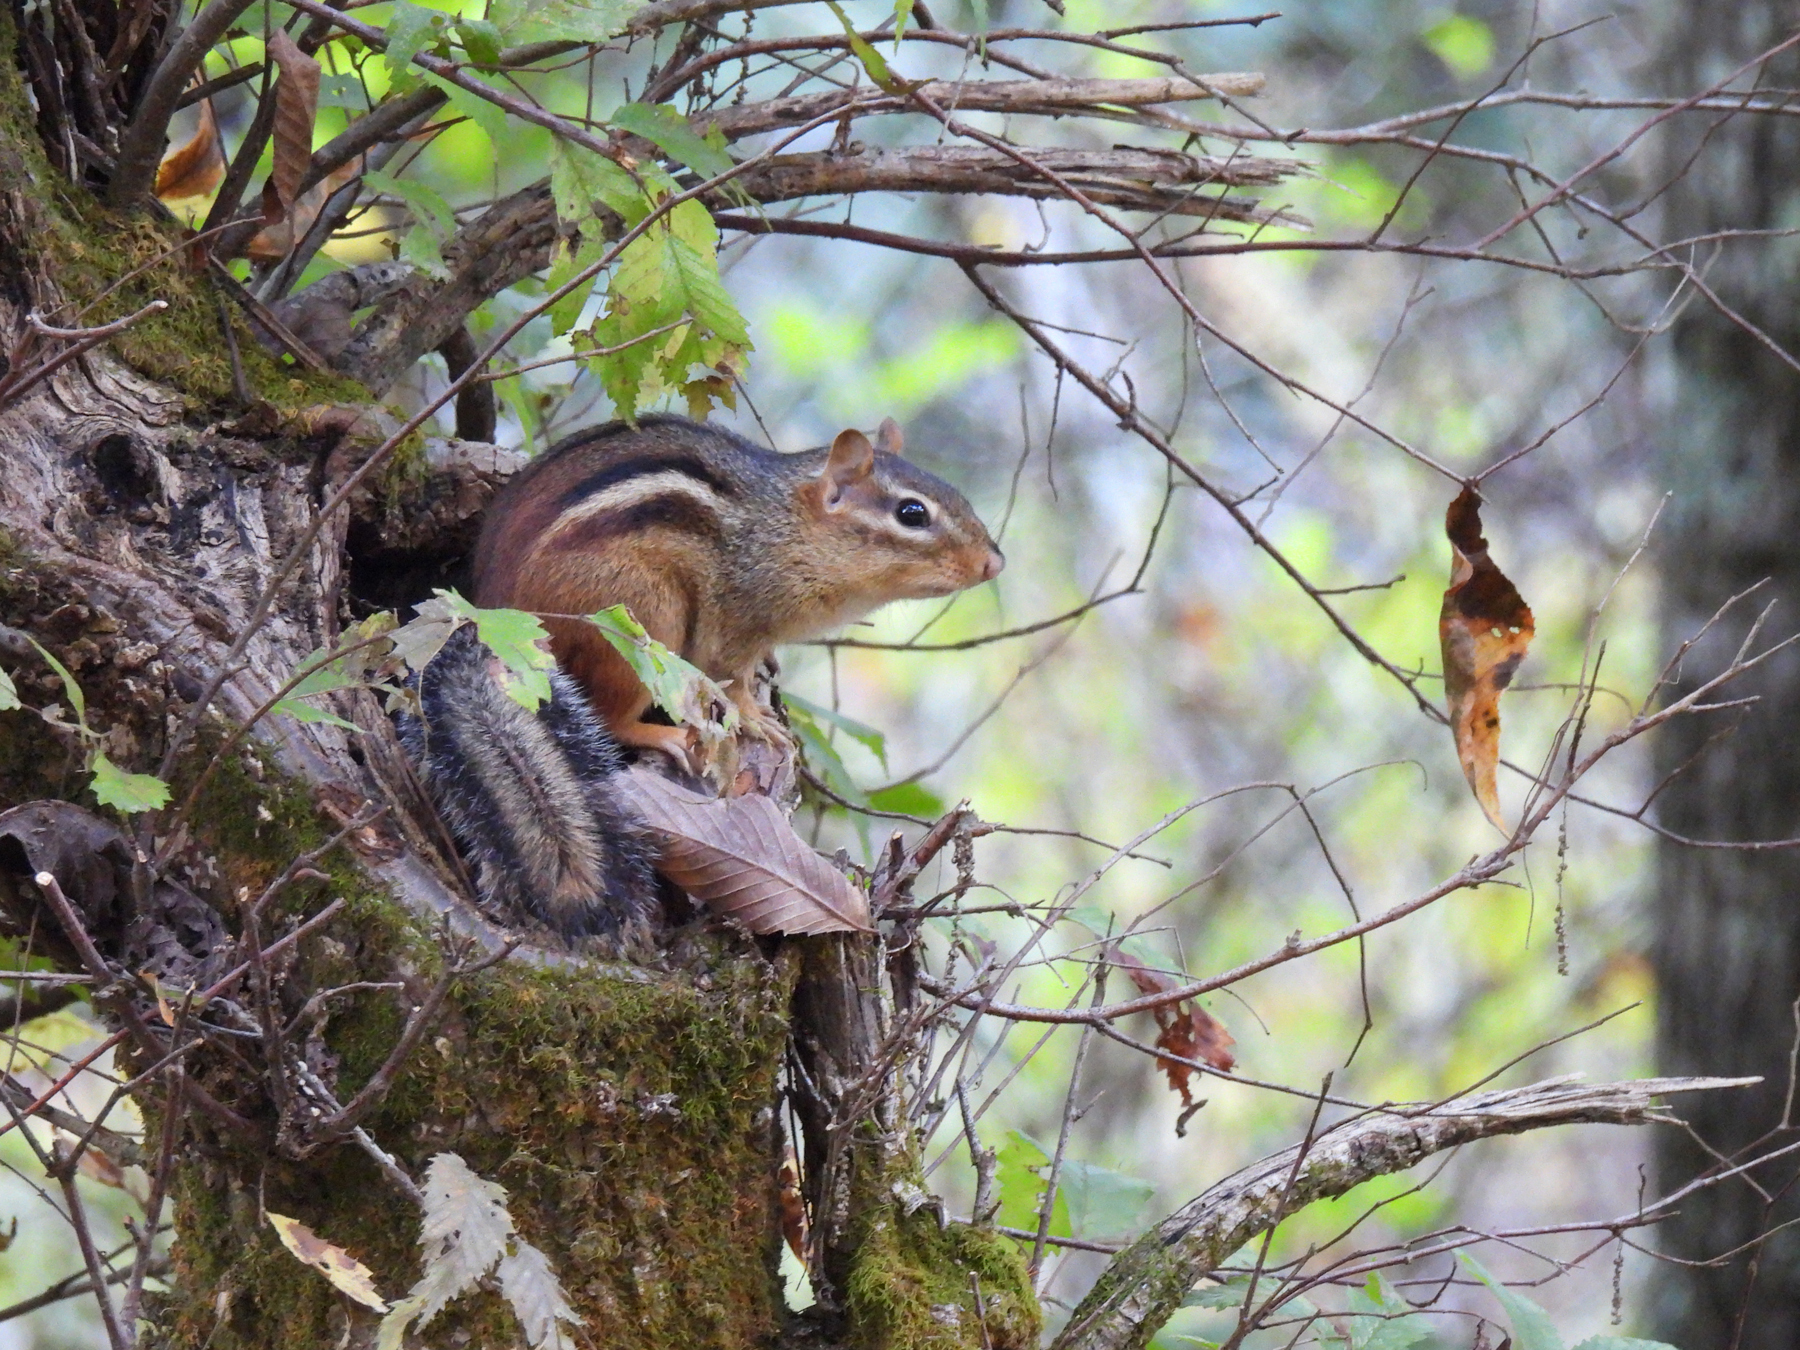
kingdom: Animalia
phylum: Chordata
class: Mammalia
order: Rodentia
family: Sciuridae
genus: Tamias
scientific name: Tamias striatus
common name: Eastern chipmunk
